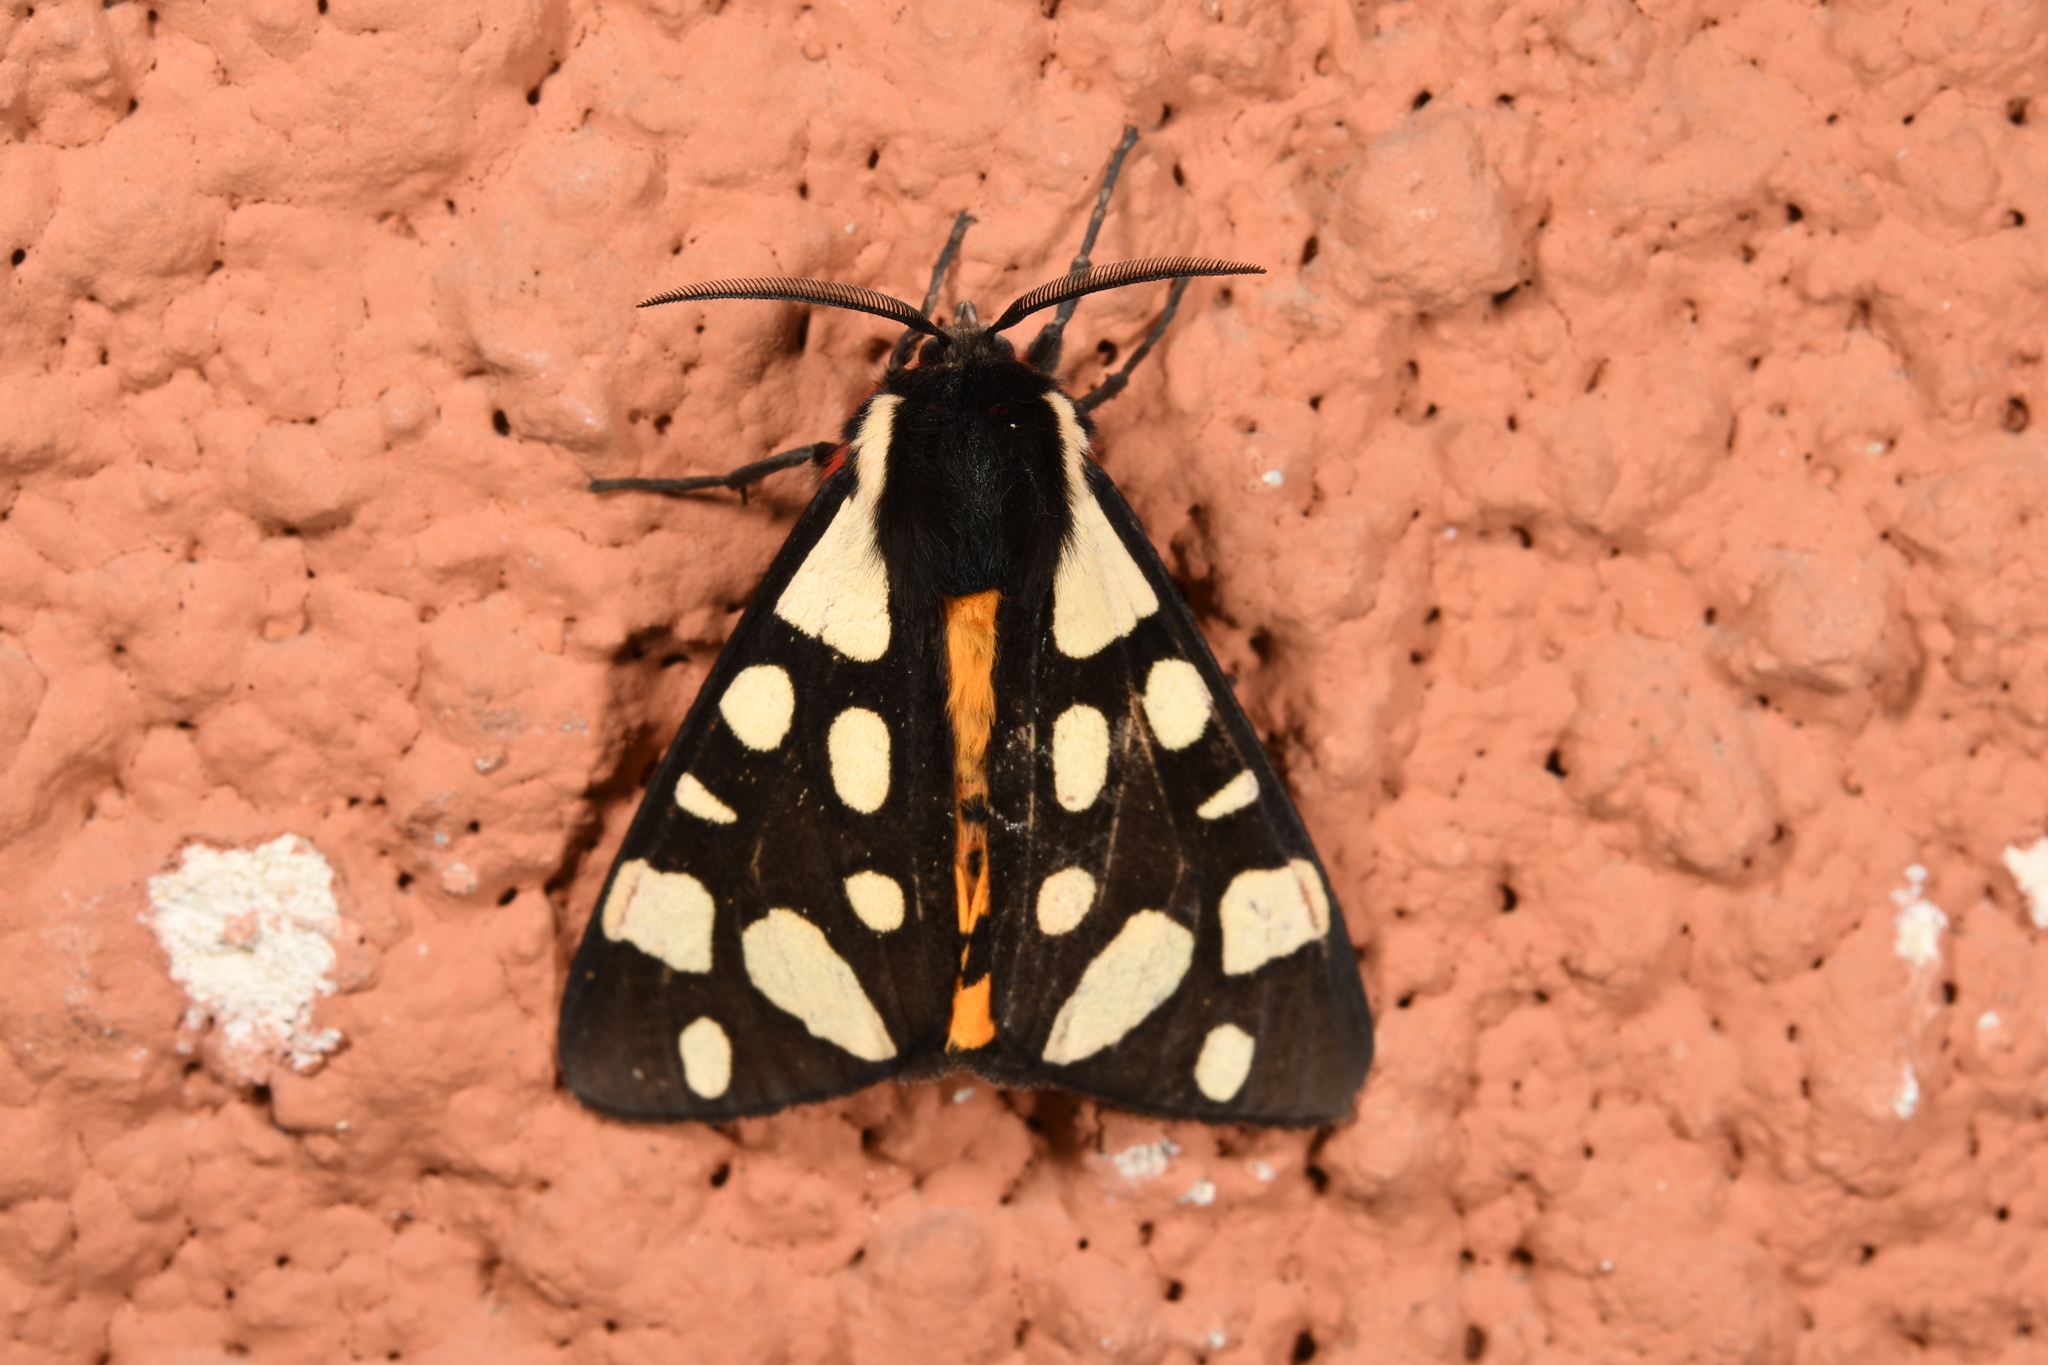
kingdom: Animalia
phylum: Arthropoda
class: Insecta
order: Lepidoptera
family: Erebidae
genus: Epicallia
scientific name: Epicallia villica
